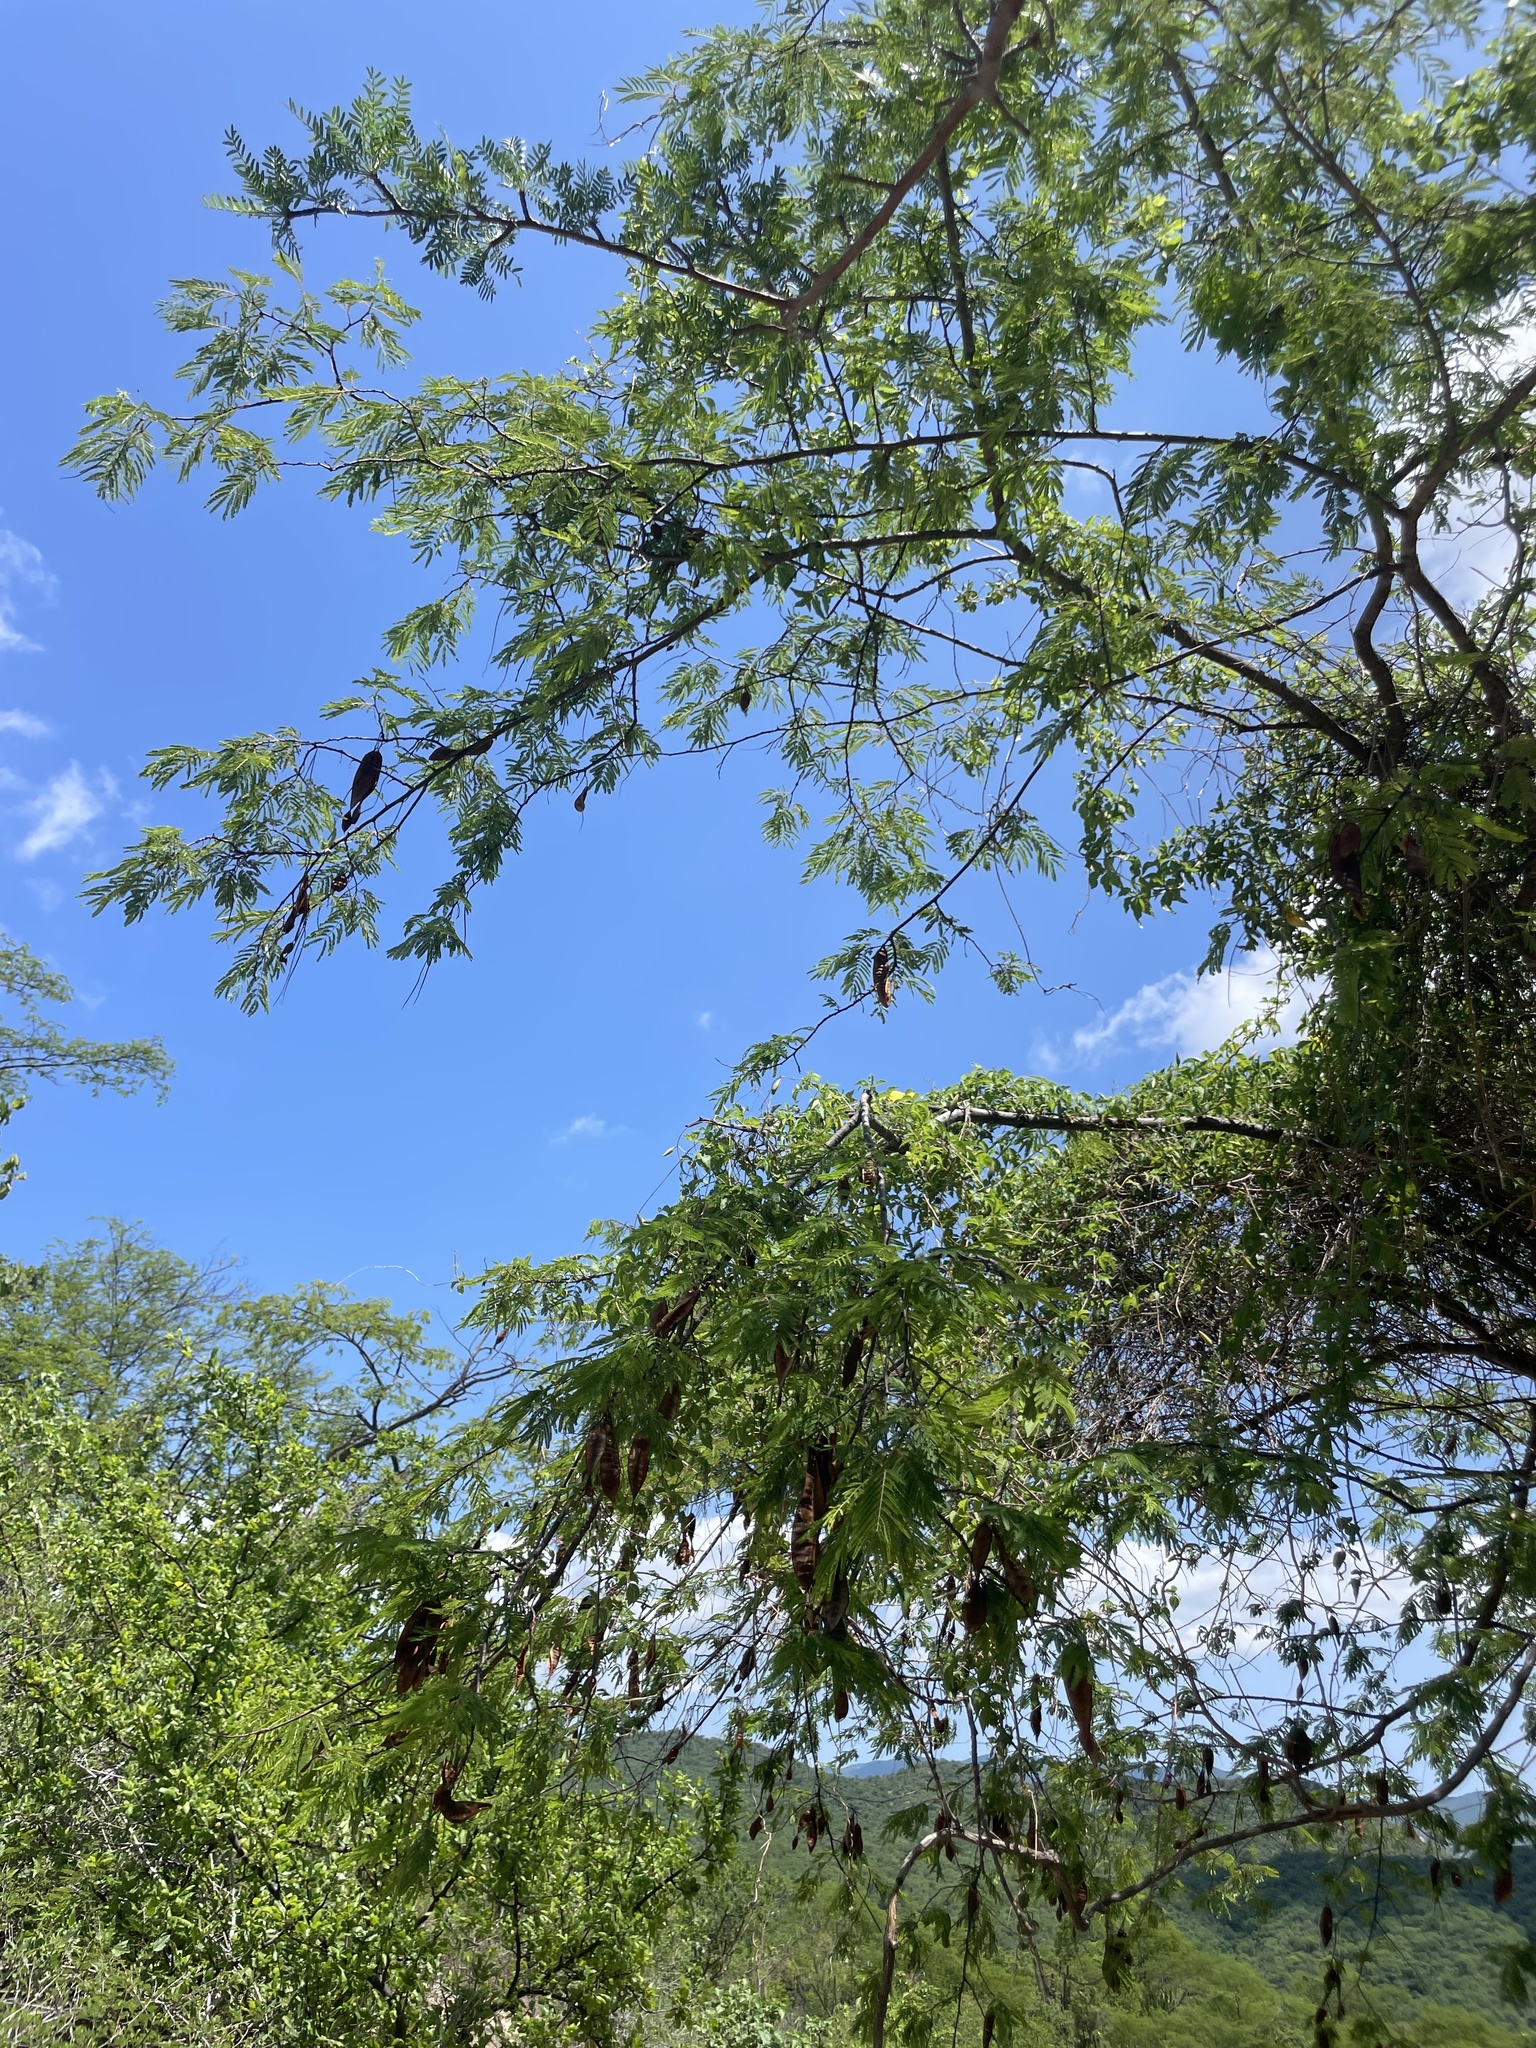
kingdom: Plantae
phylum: Tracheophyta
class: Magnoliopsida
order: Fabales
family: Fabaceae
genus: Lysiloma
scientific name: Lysiloma divaricatum
